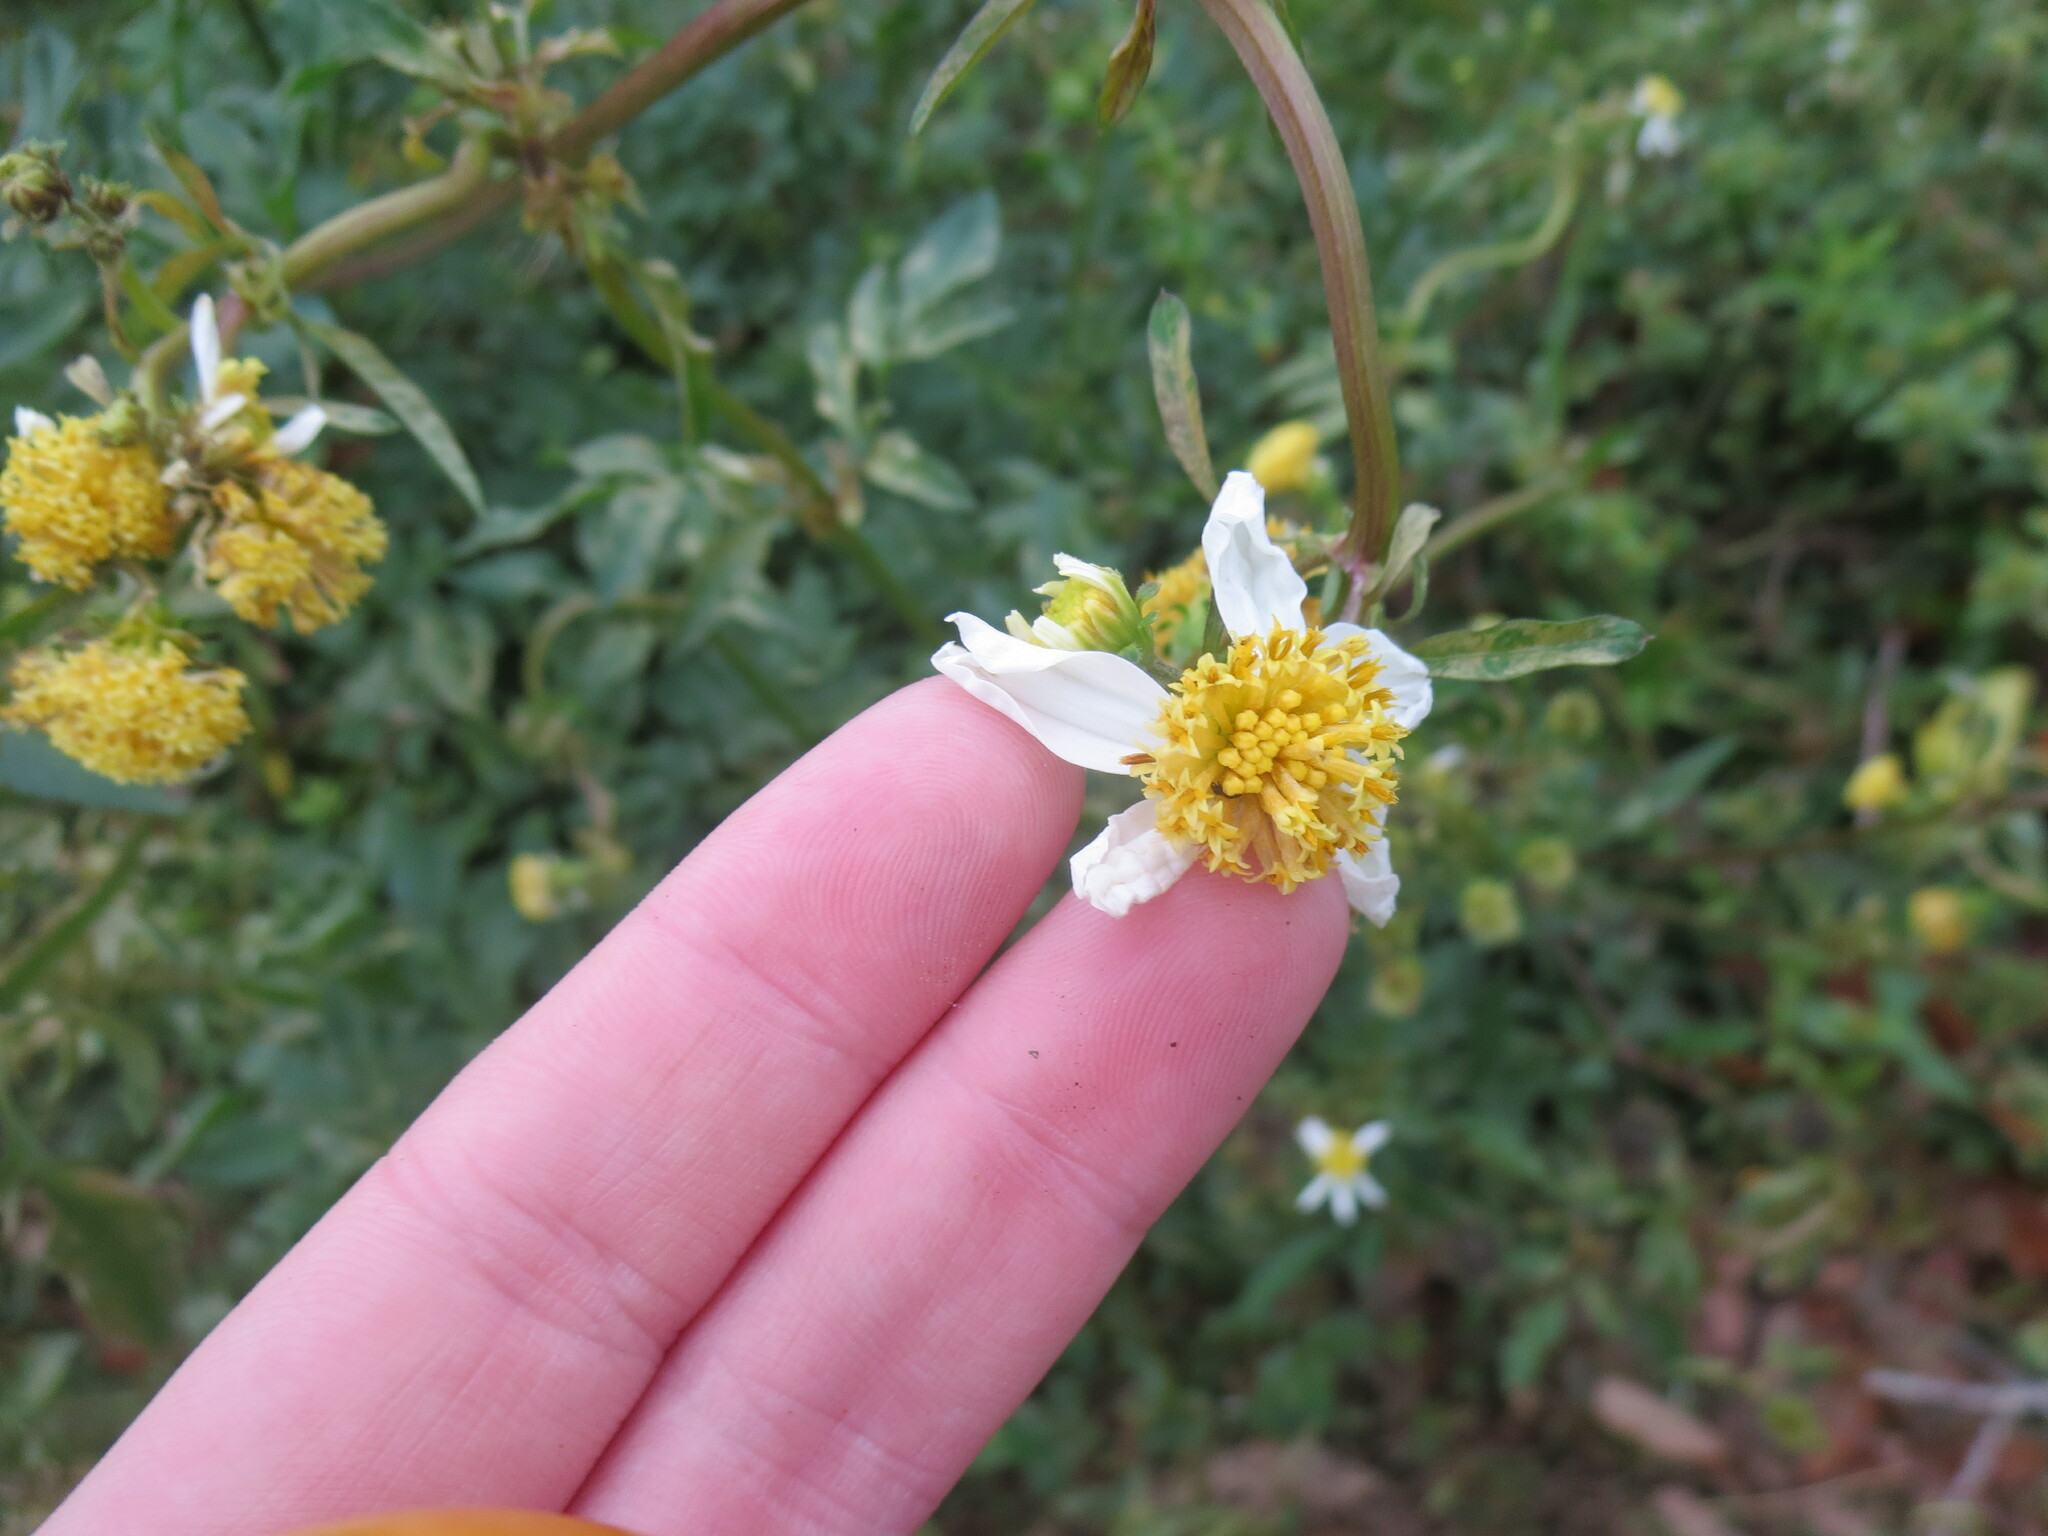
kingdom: Animalia
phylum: Chordata
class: Squamata
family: Dactyloidae
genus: Anolis
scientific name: Anolis sagrei
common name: Brown anole
